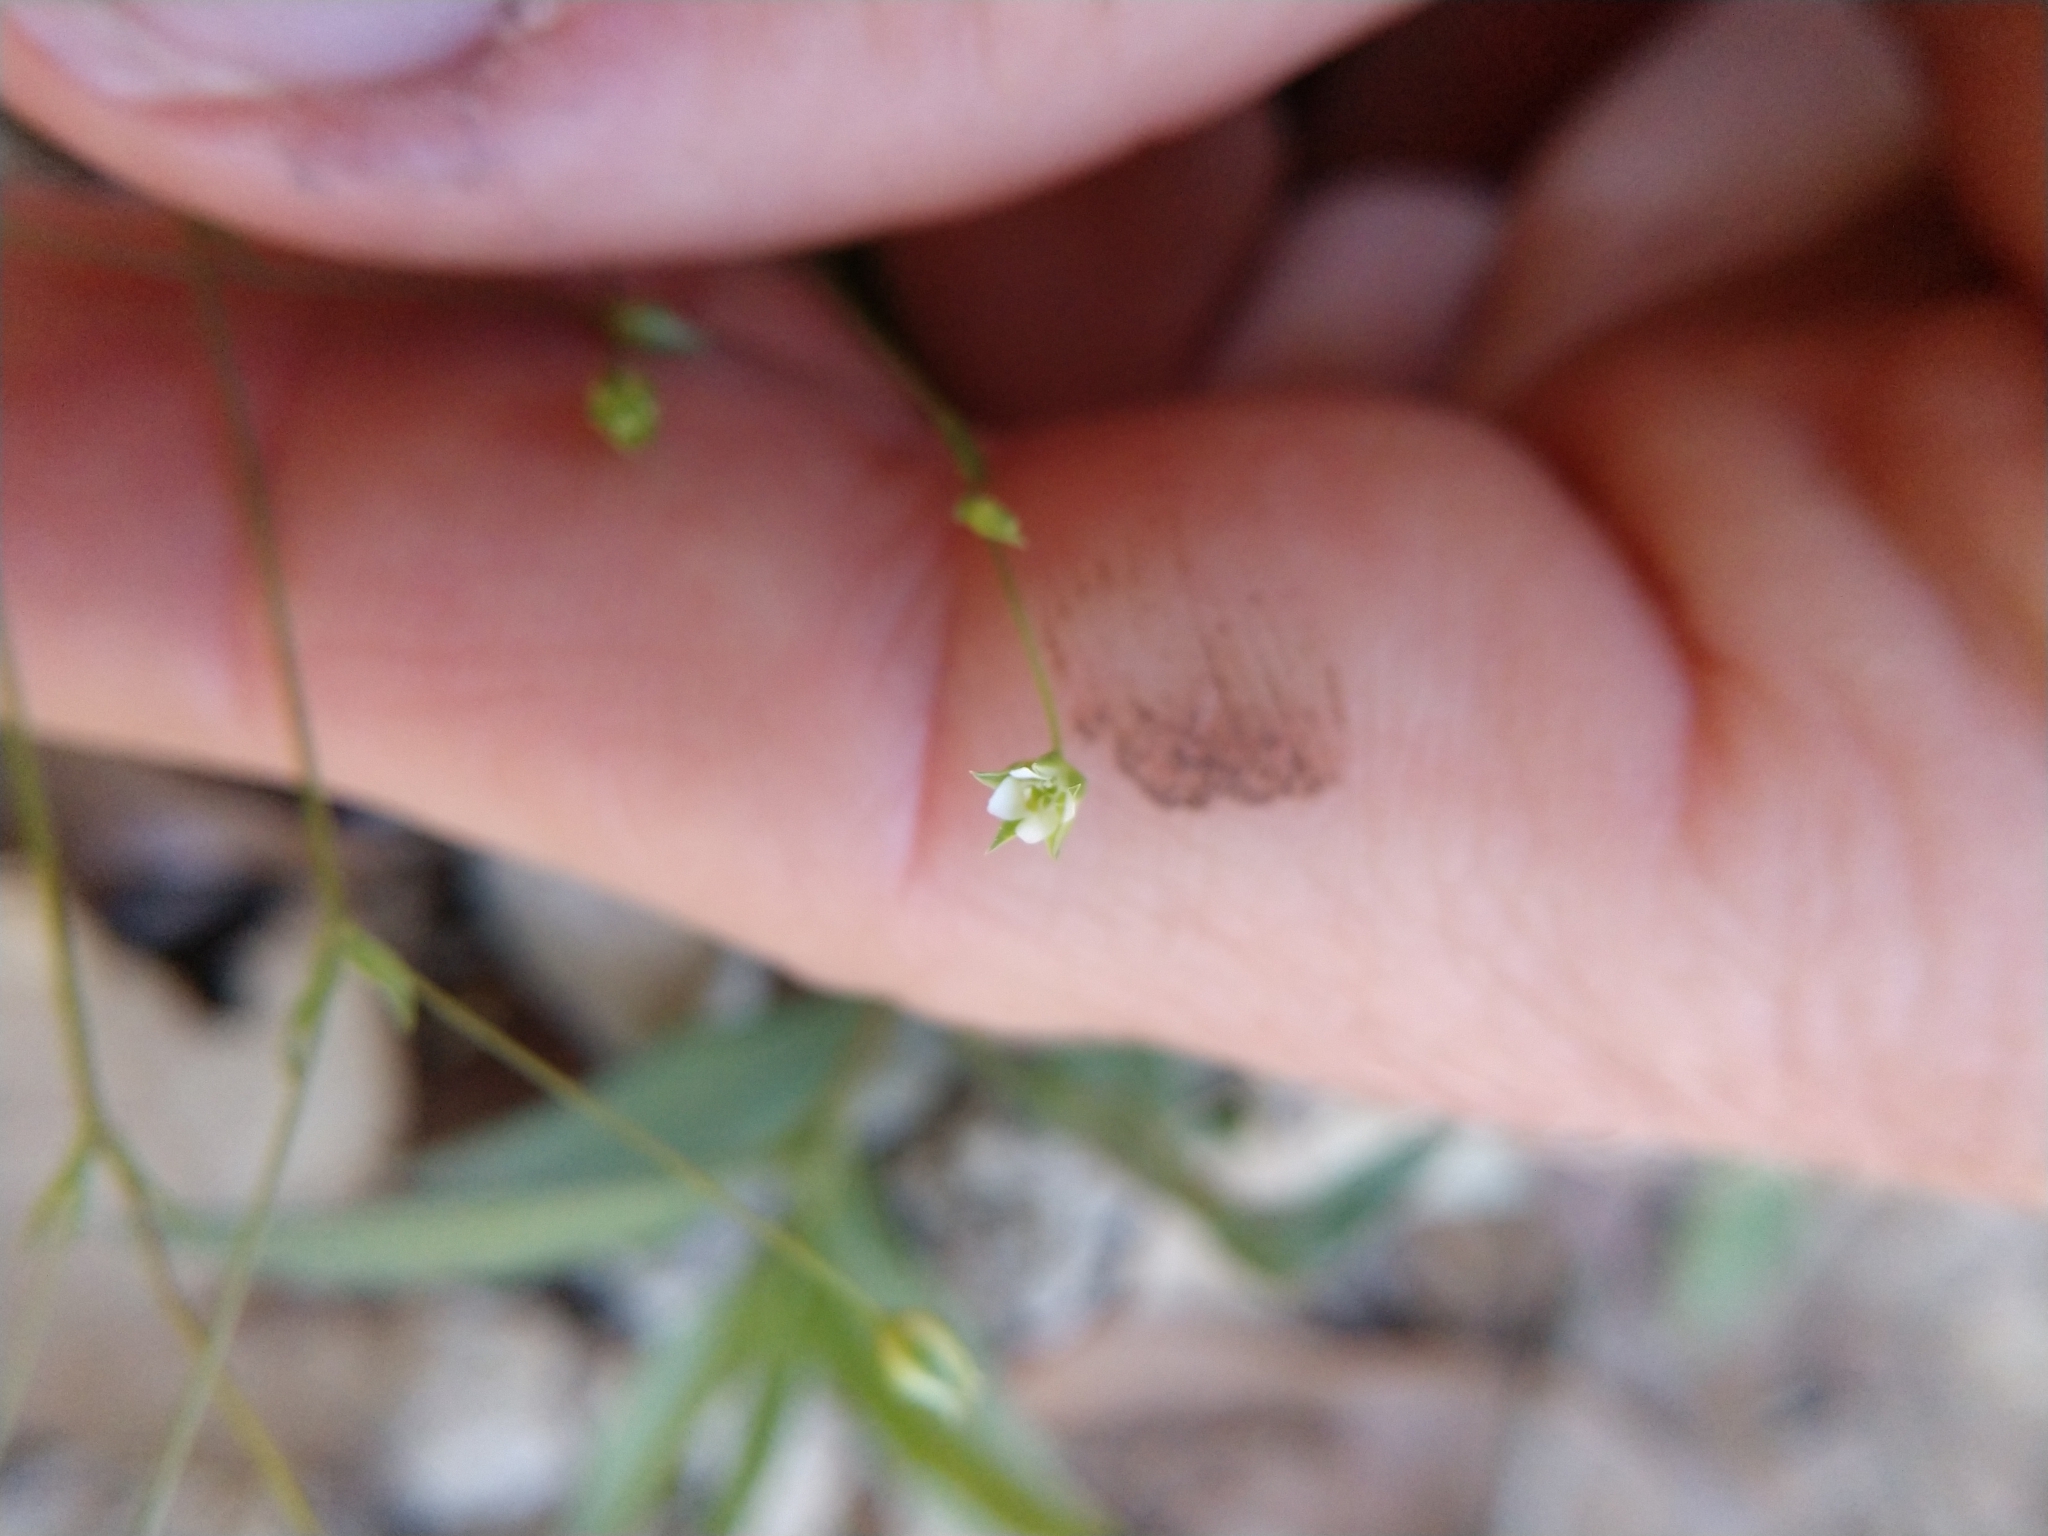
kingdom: Plantae
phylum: Tracheophyta
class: Magnoliopsida
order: Caryophyllales
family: Caryophyllaceae
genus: Arenaria
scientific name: Arenaria benthamii
